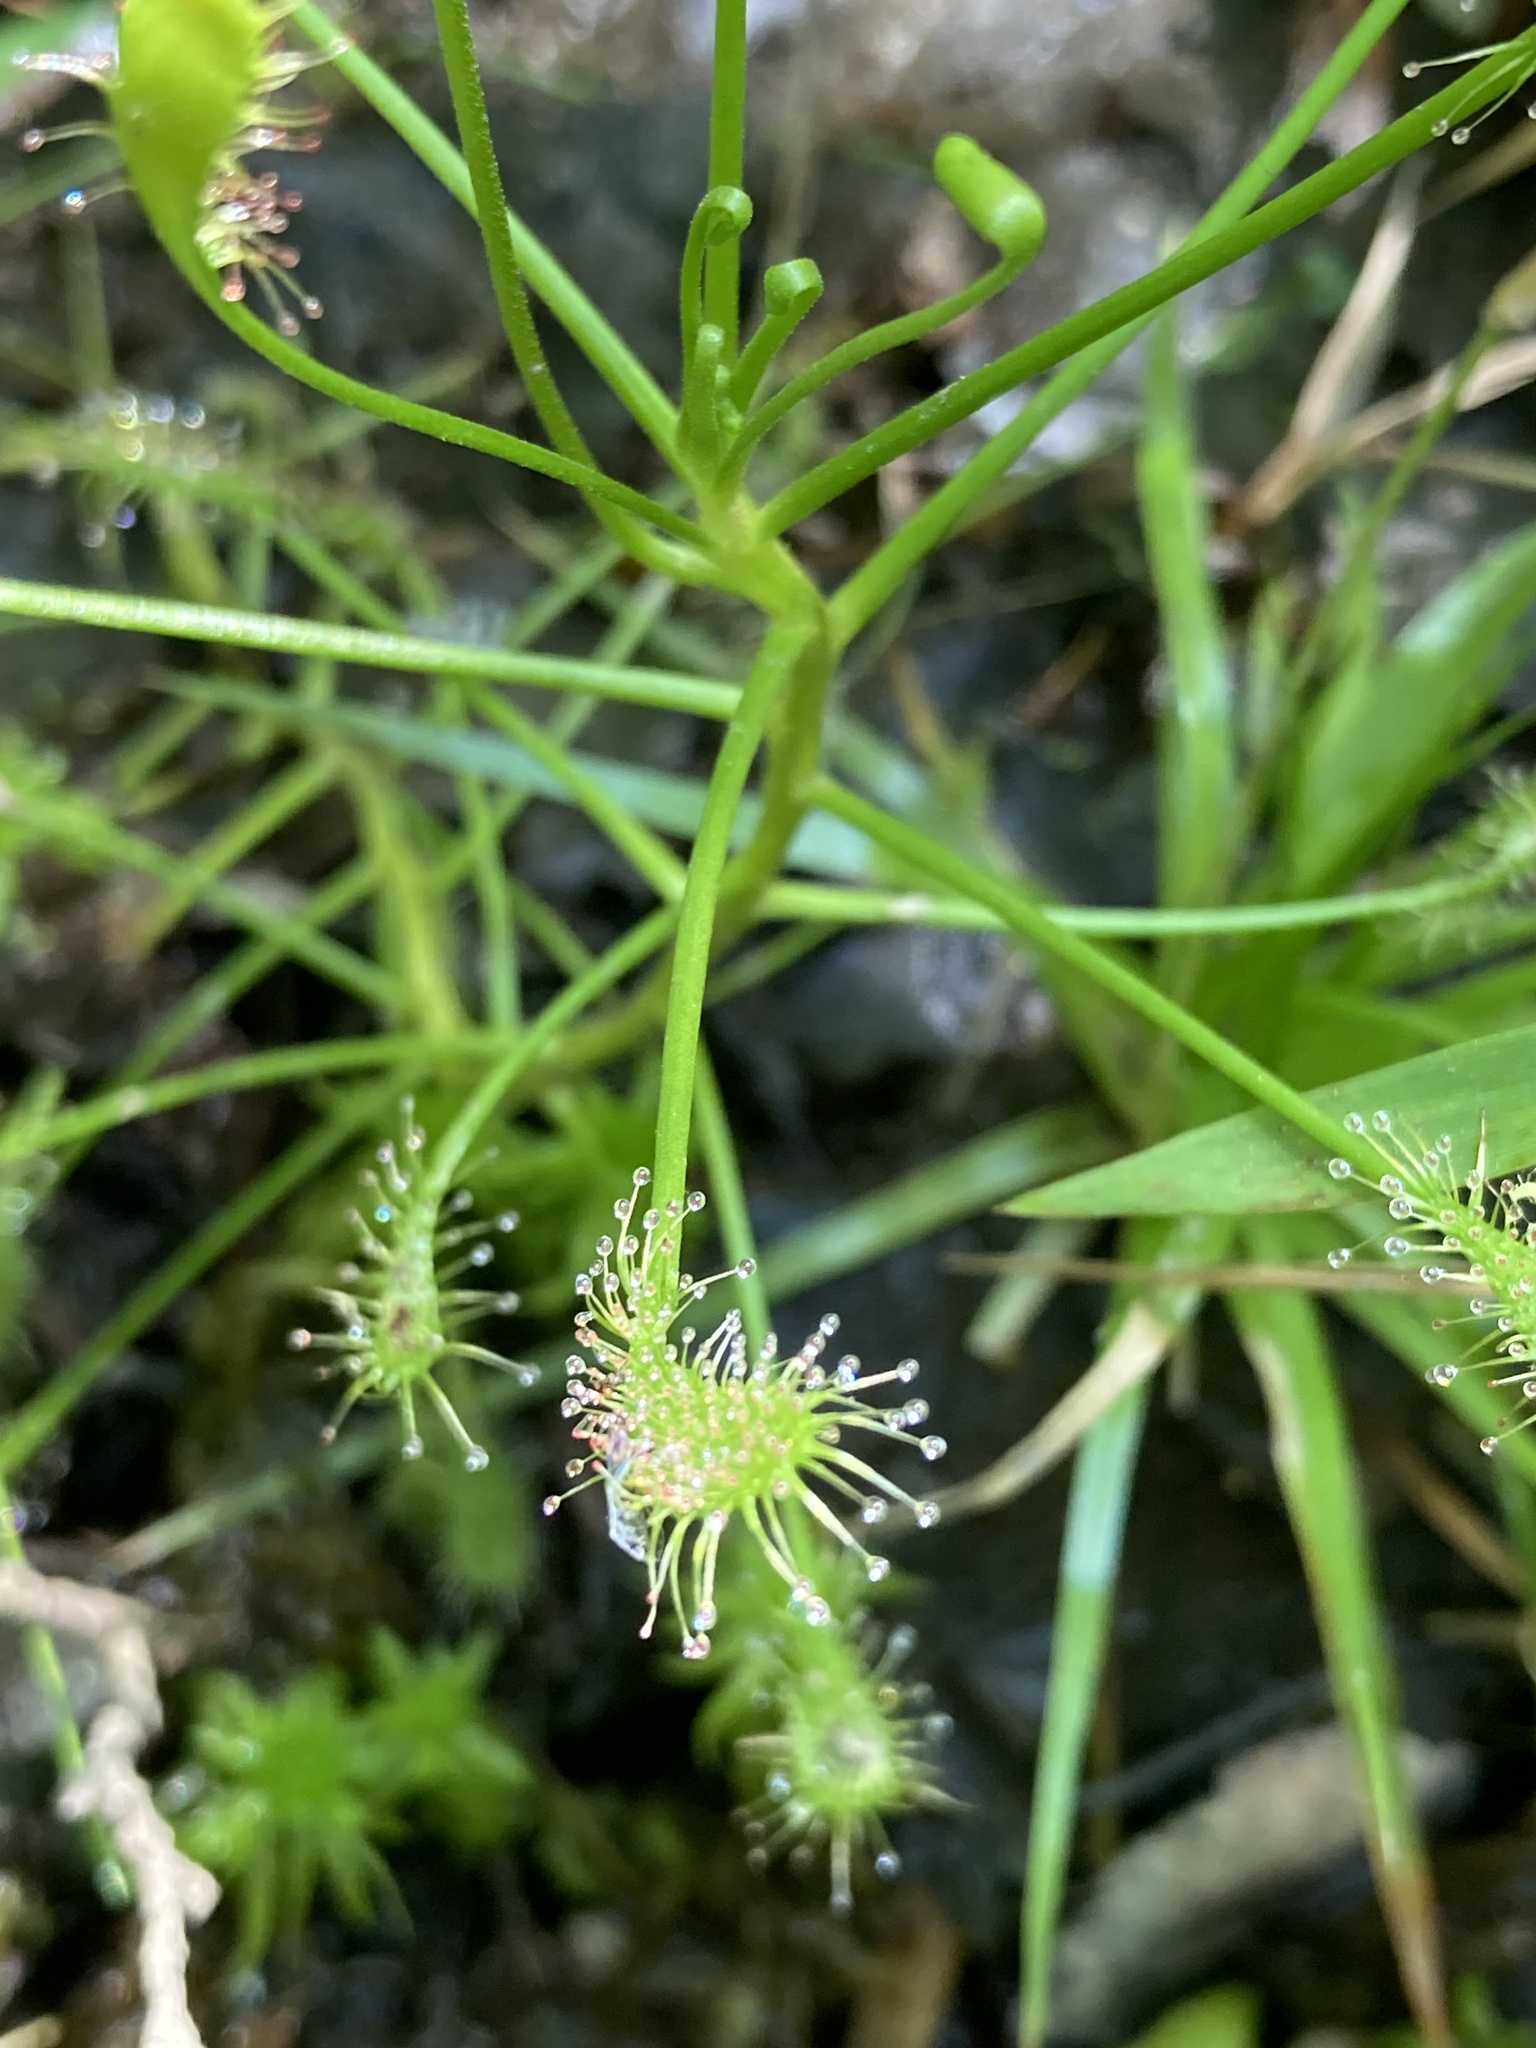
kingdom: Plantae
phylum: Tracheophyta
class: Magnoliopsida
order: Caryophyllales
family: Droseraceae
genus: Drosera
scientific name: Drosera intermedia
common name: Oblong-leaved sundew
